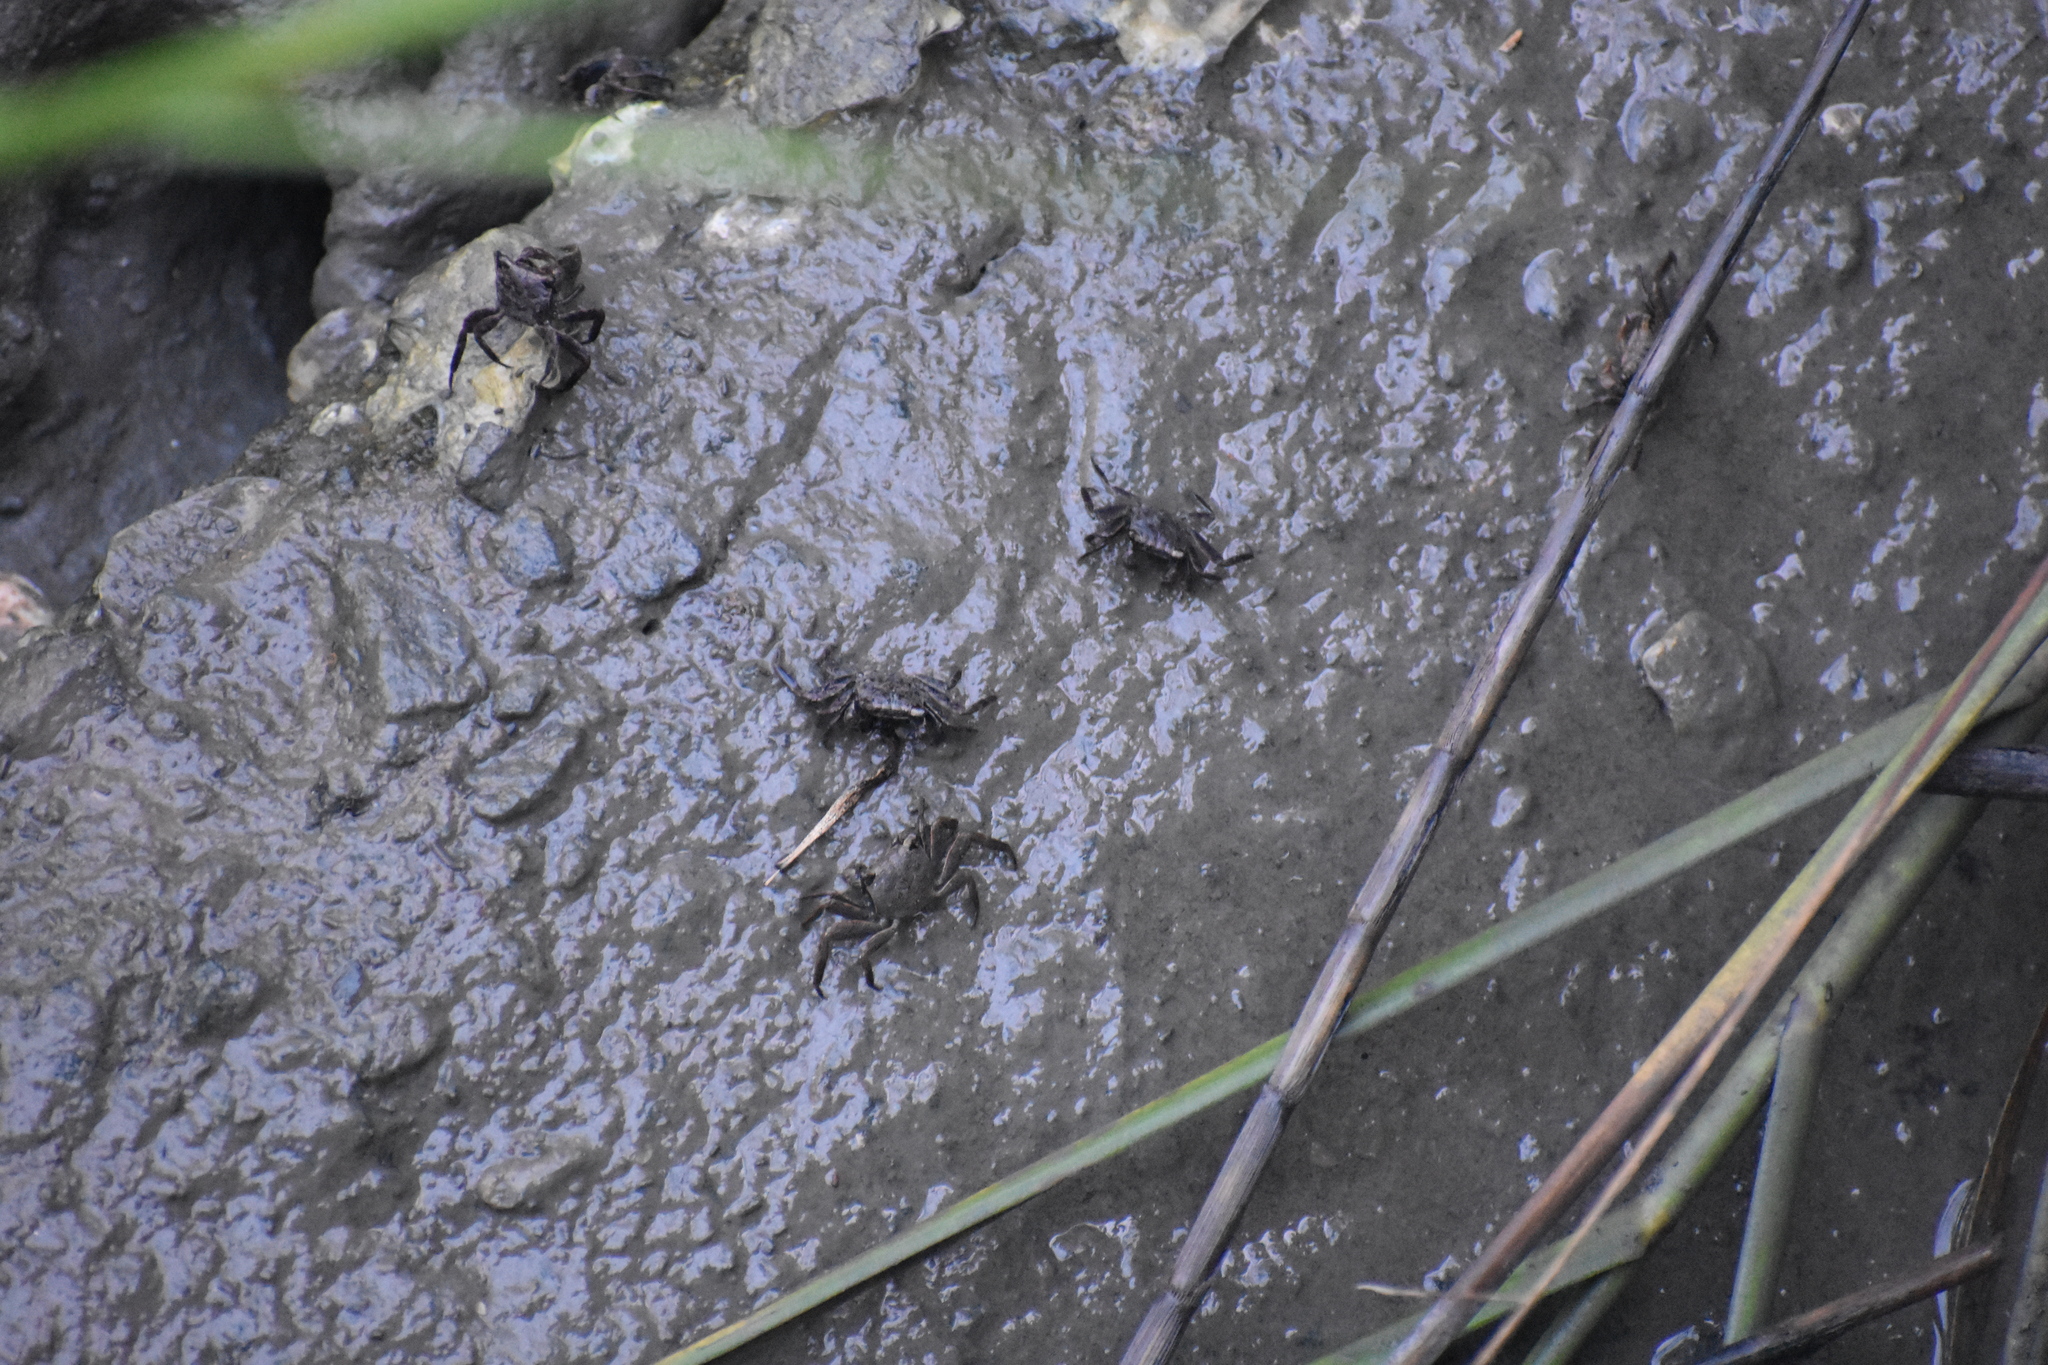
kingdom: Animalia
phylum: Arthropoda
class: Malacostraca
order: Decapoda
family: Sesarmidae
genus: Armases
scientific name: Armases cinereum
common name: Squareback marsh crab
